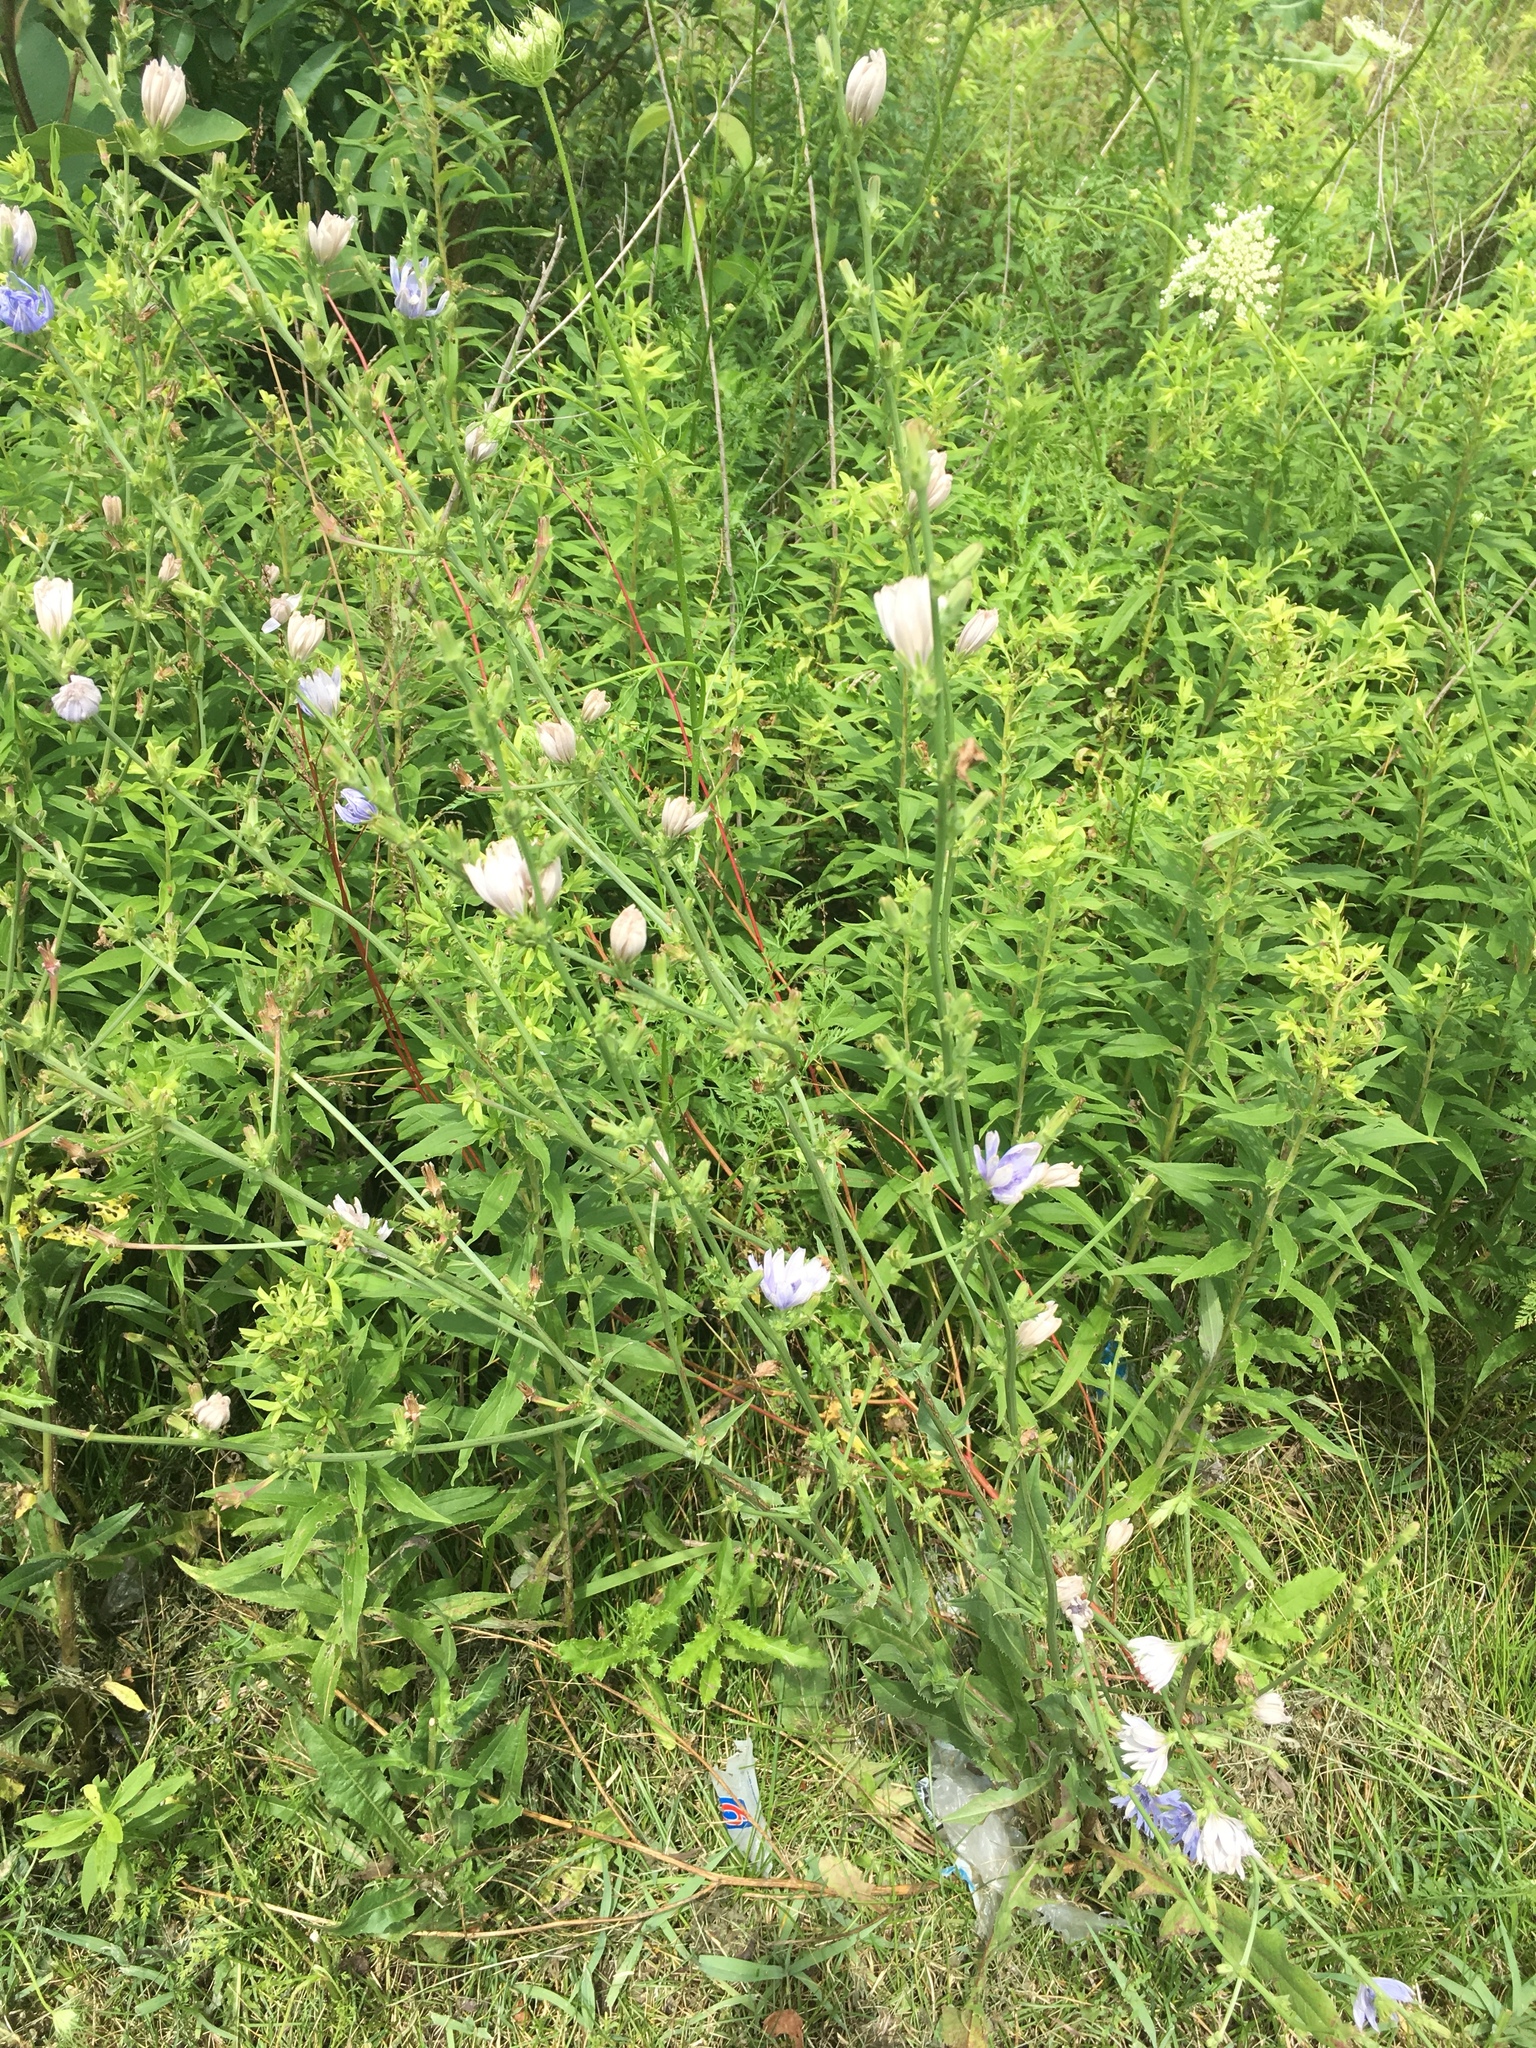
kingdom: Plantae
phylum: Tracheophyta
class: Magnoliopsida
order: Asterales
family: Asteraceae
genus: Cichorium
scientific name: Cichorium intybus
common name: Chicory
